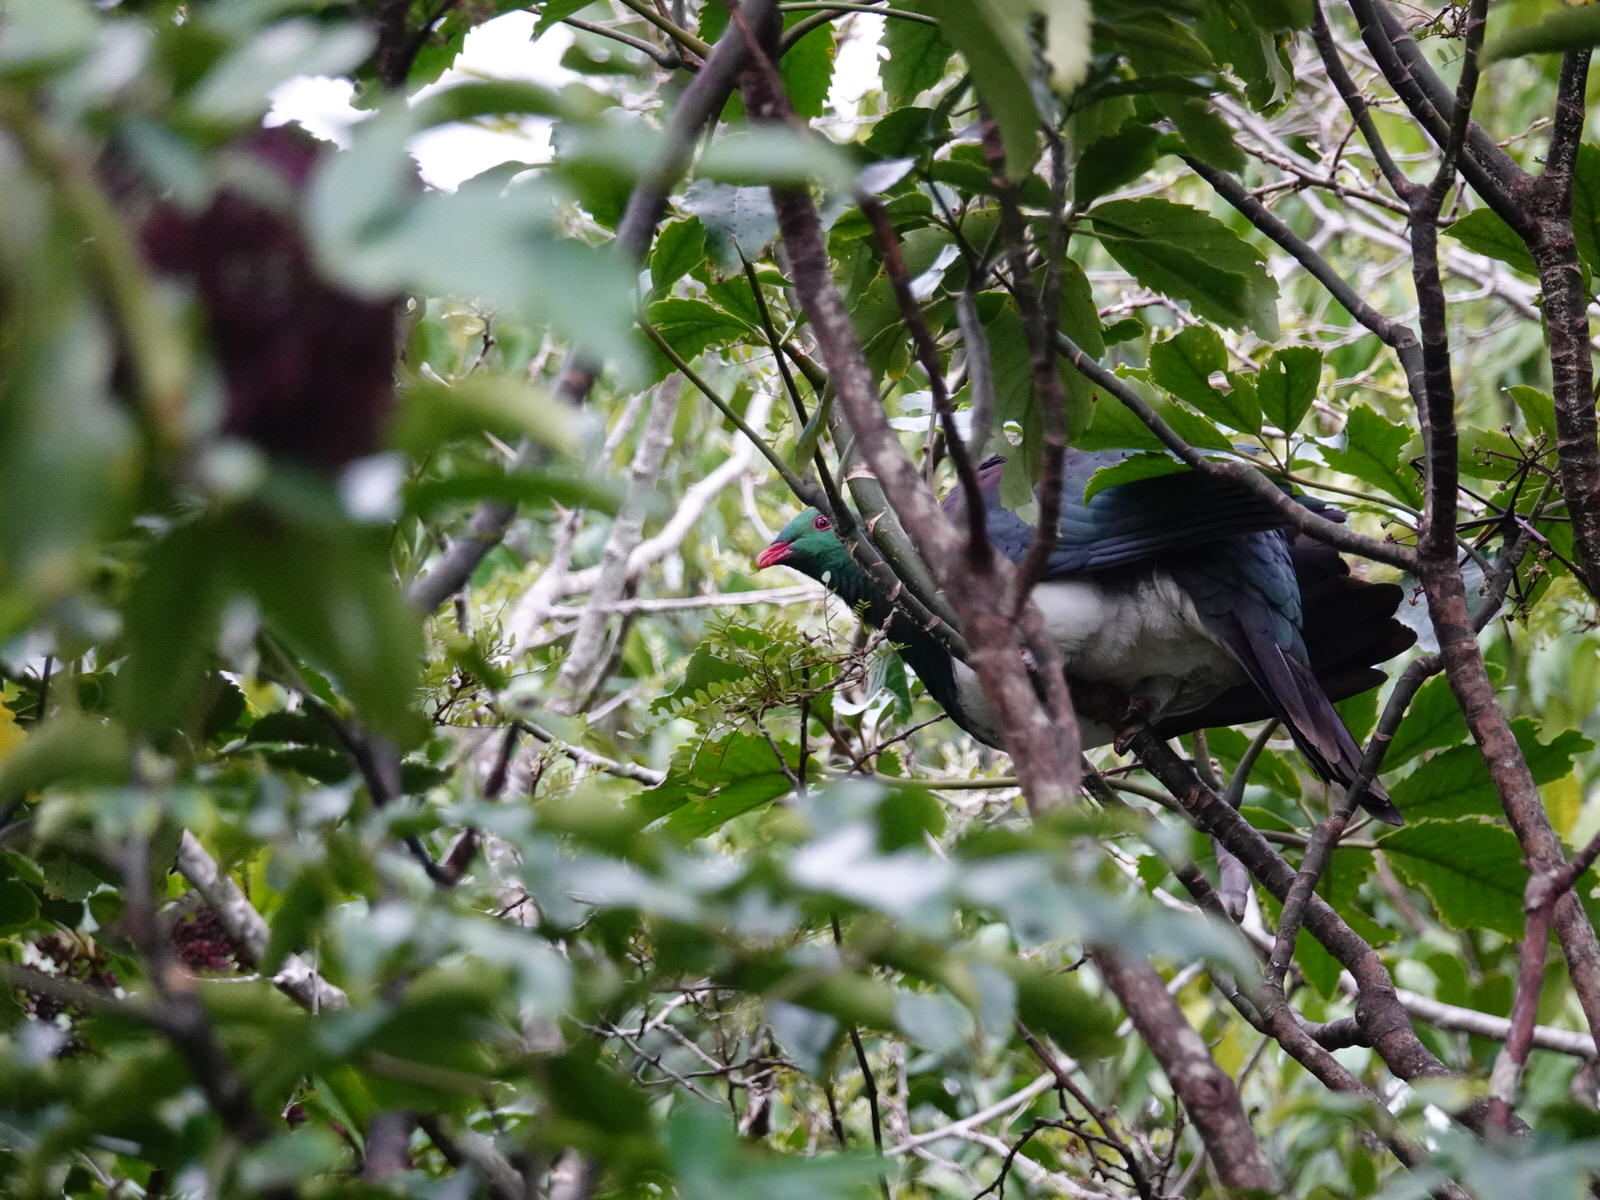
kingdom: Animalia
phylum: Chordata
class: Aves
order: Columbiformes
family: Columbidae
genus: Hemiphaga
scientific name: Hemiphaga novaeseelandiae
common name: New zealand pigeon
